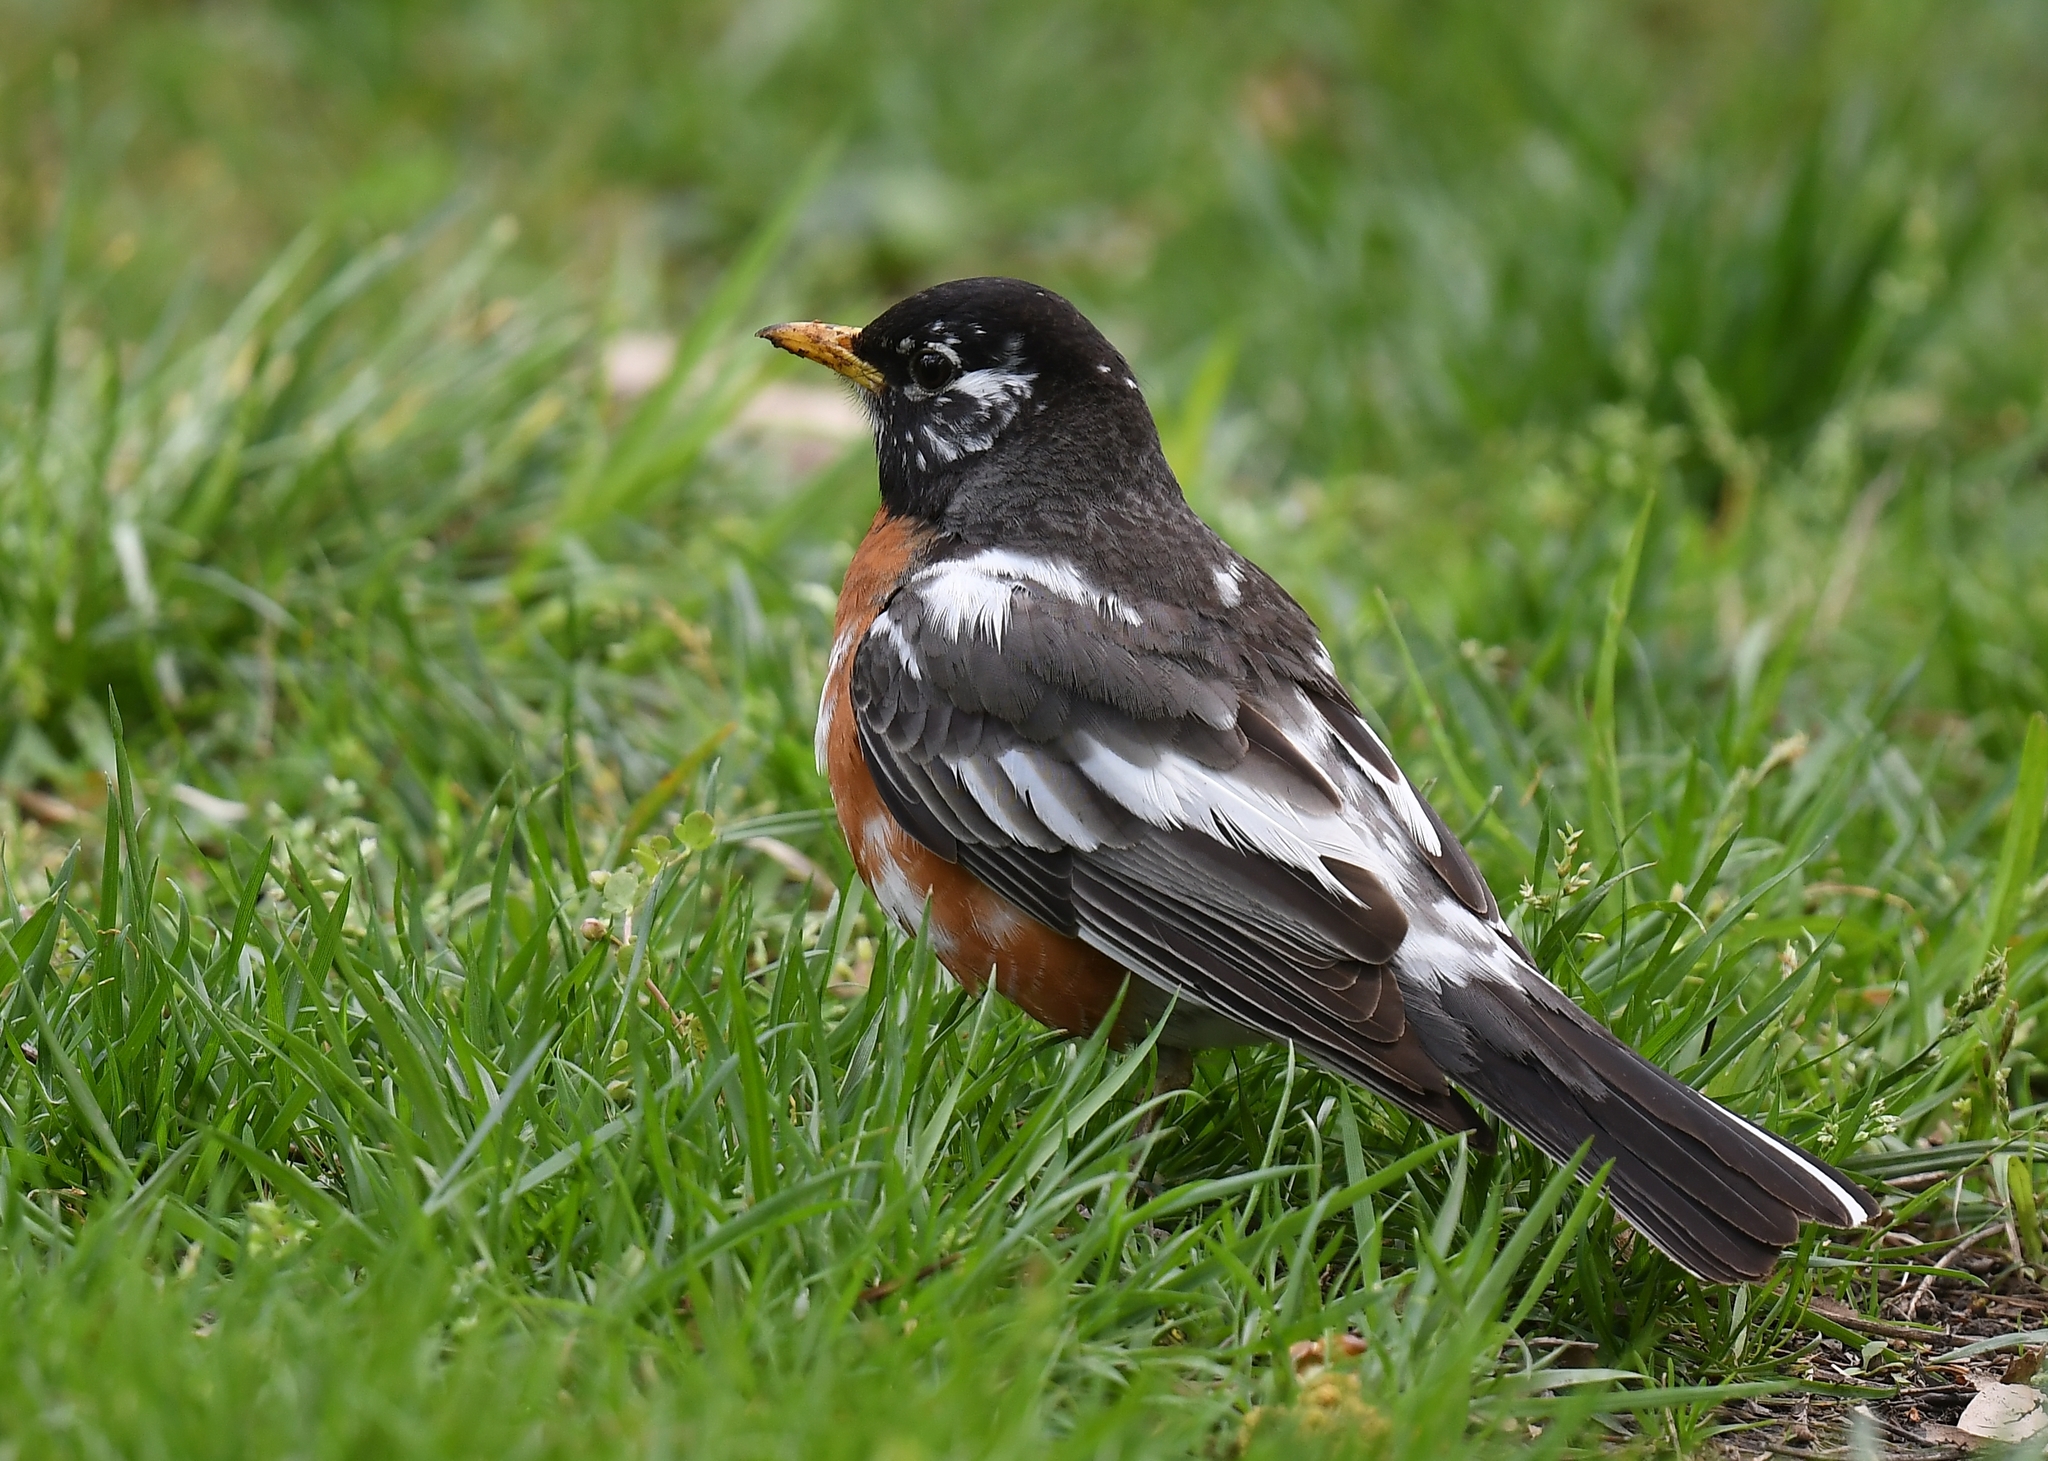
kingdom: Animalia
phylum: Chordata
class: Aves
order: Passeriformes
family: Turdidae
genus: Turdus
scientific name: Turdus migratorius
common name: American robin
